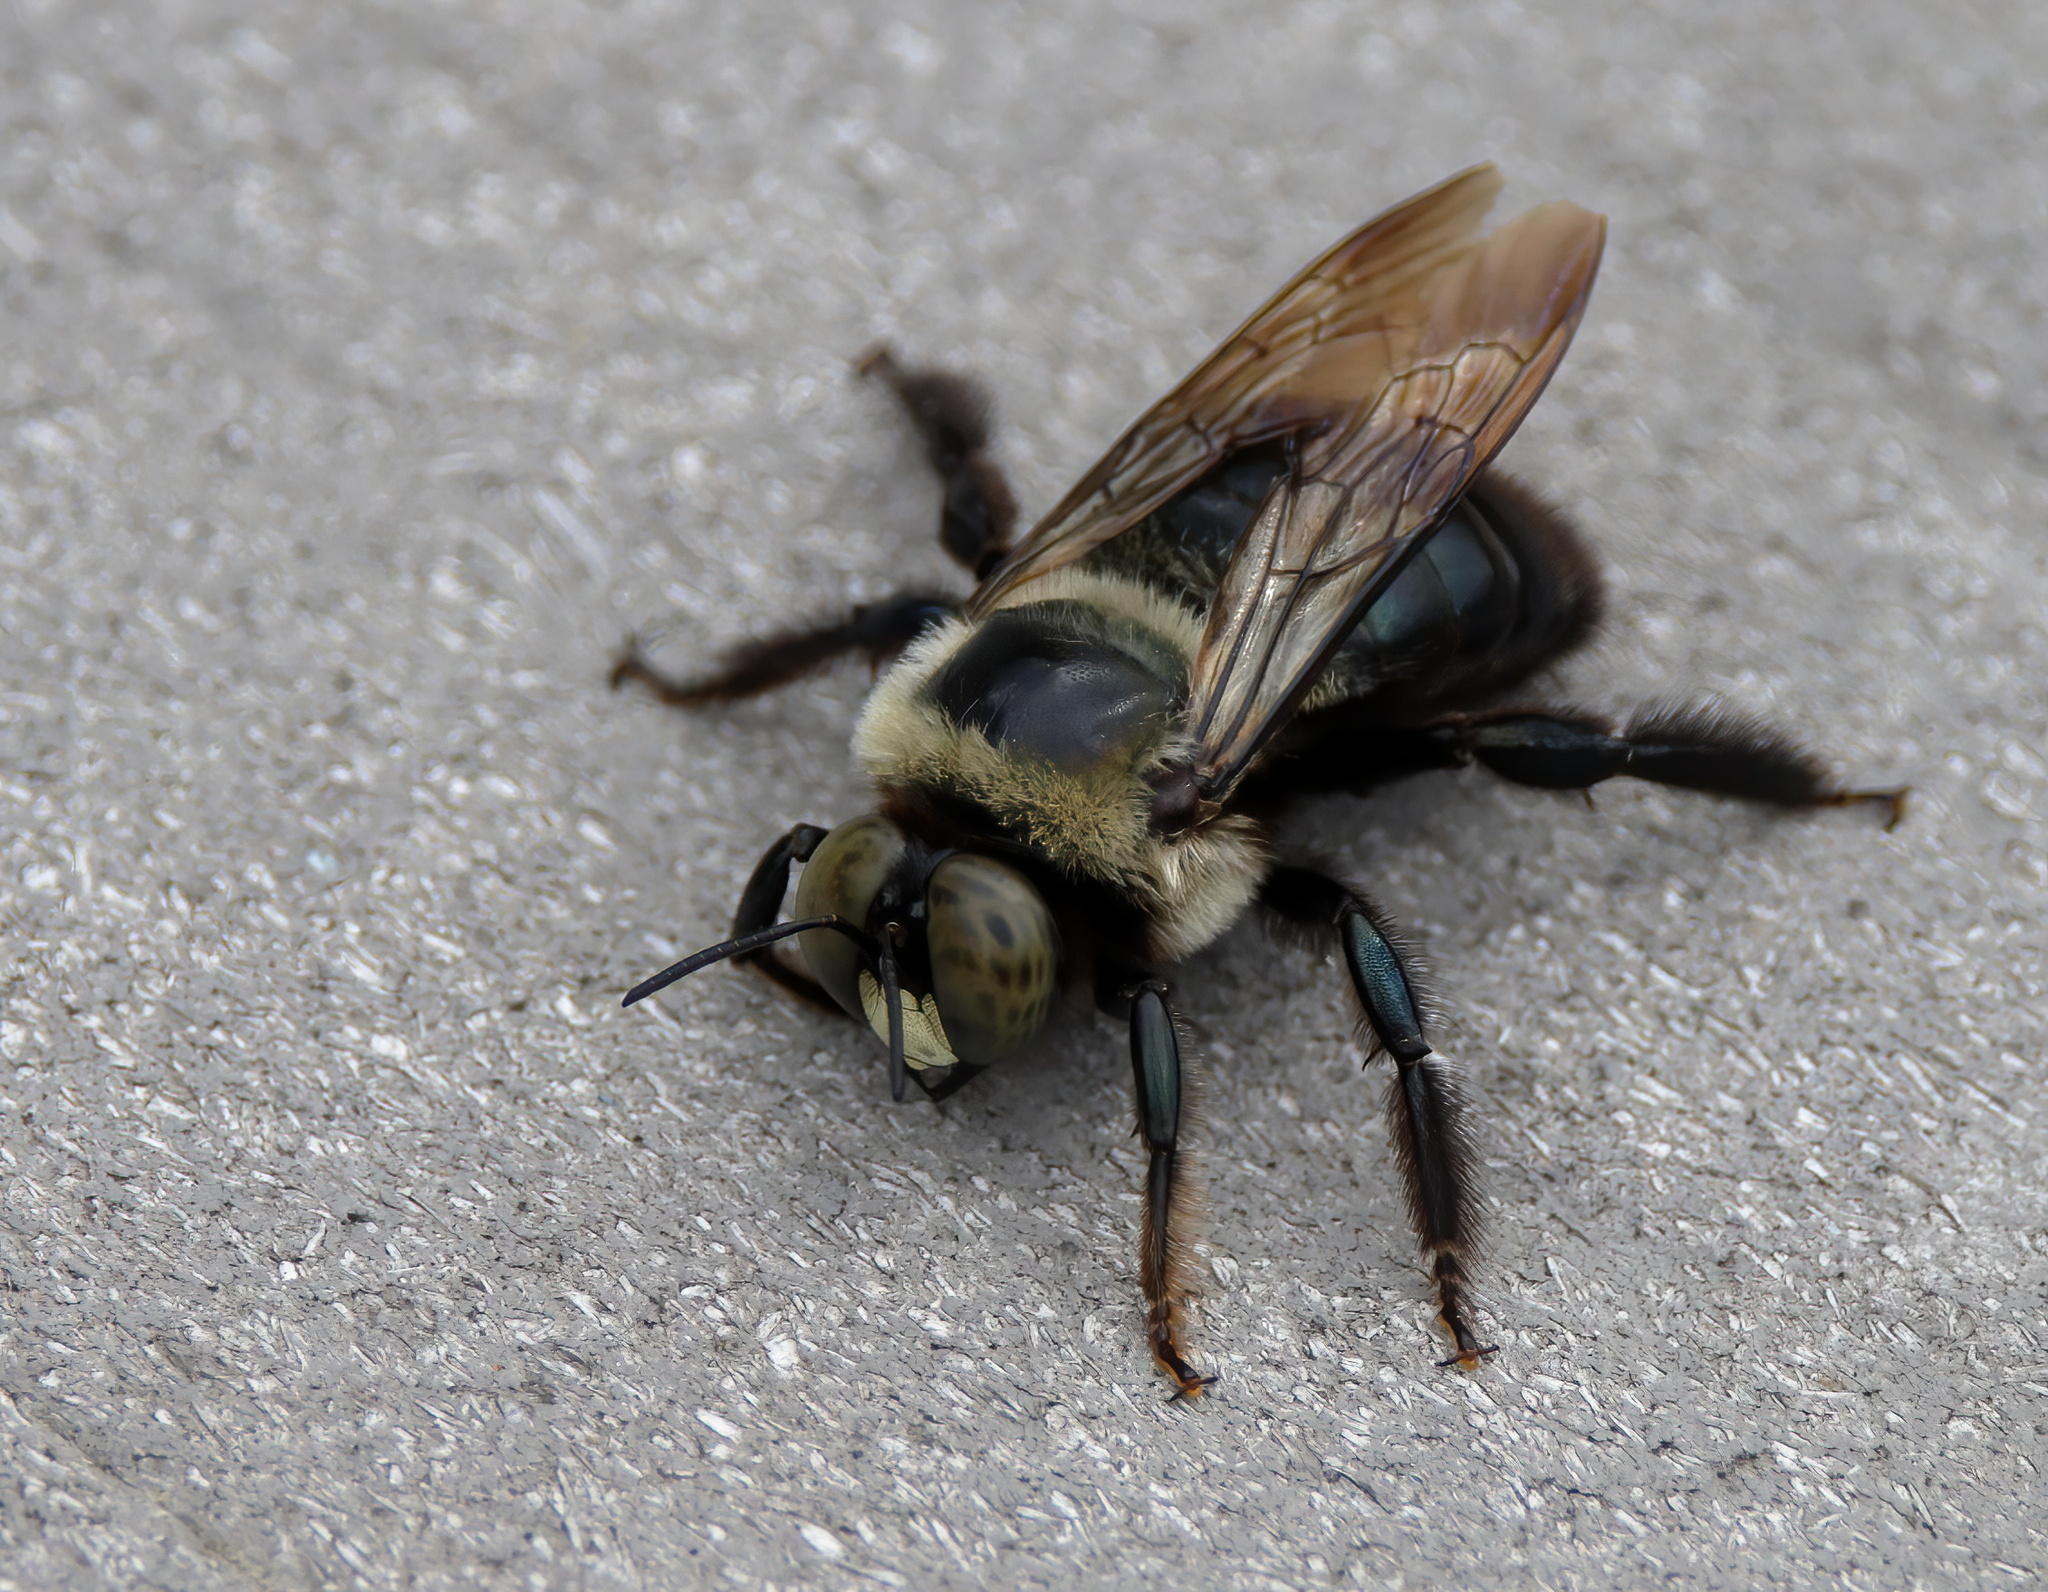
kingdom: Animalia
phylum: Arthropoda
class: Insecta
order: Hymenoptera
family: Apidae
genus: Xylocopa
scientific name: Xylocopa virginica
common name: Carpenter bee
